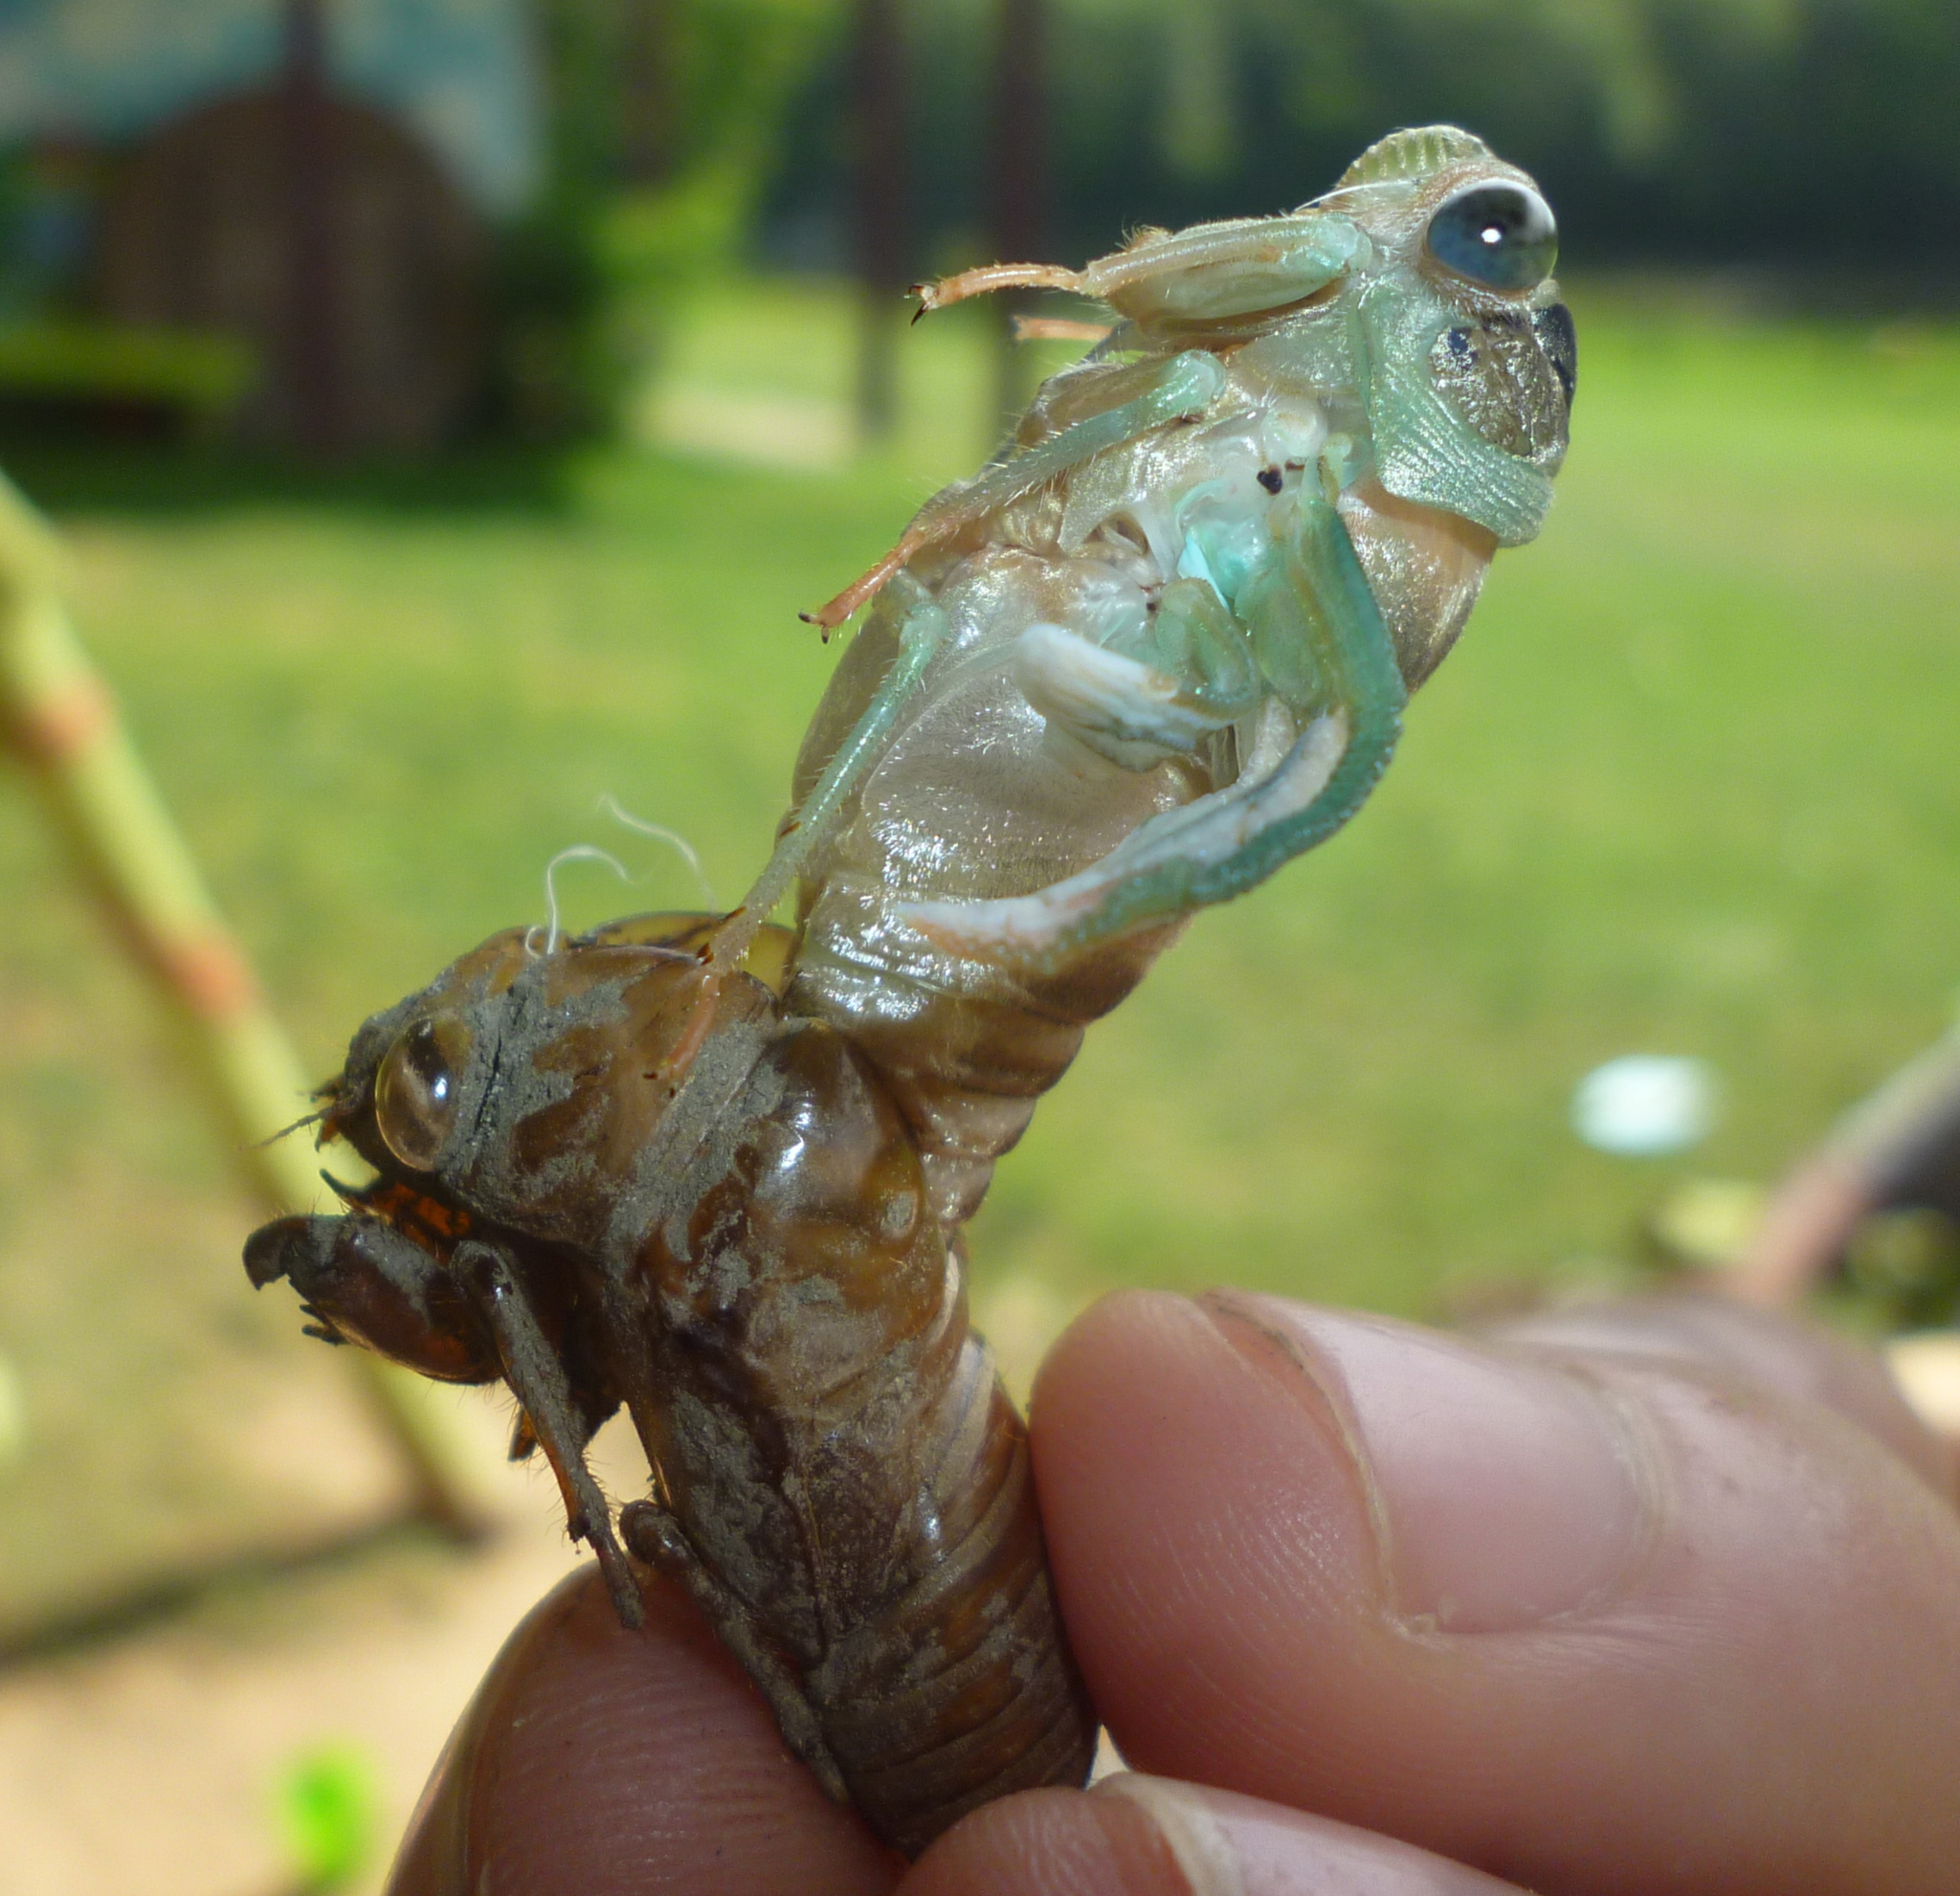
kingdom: Animalia
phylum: Arthropoda
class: Insecta
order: Hemiptera
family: Cicadidae
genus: Neotibicen
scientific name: Neotibicen linnei
